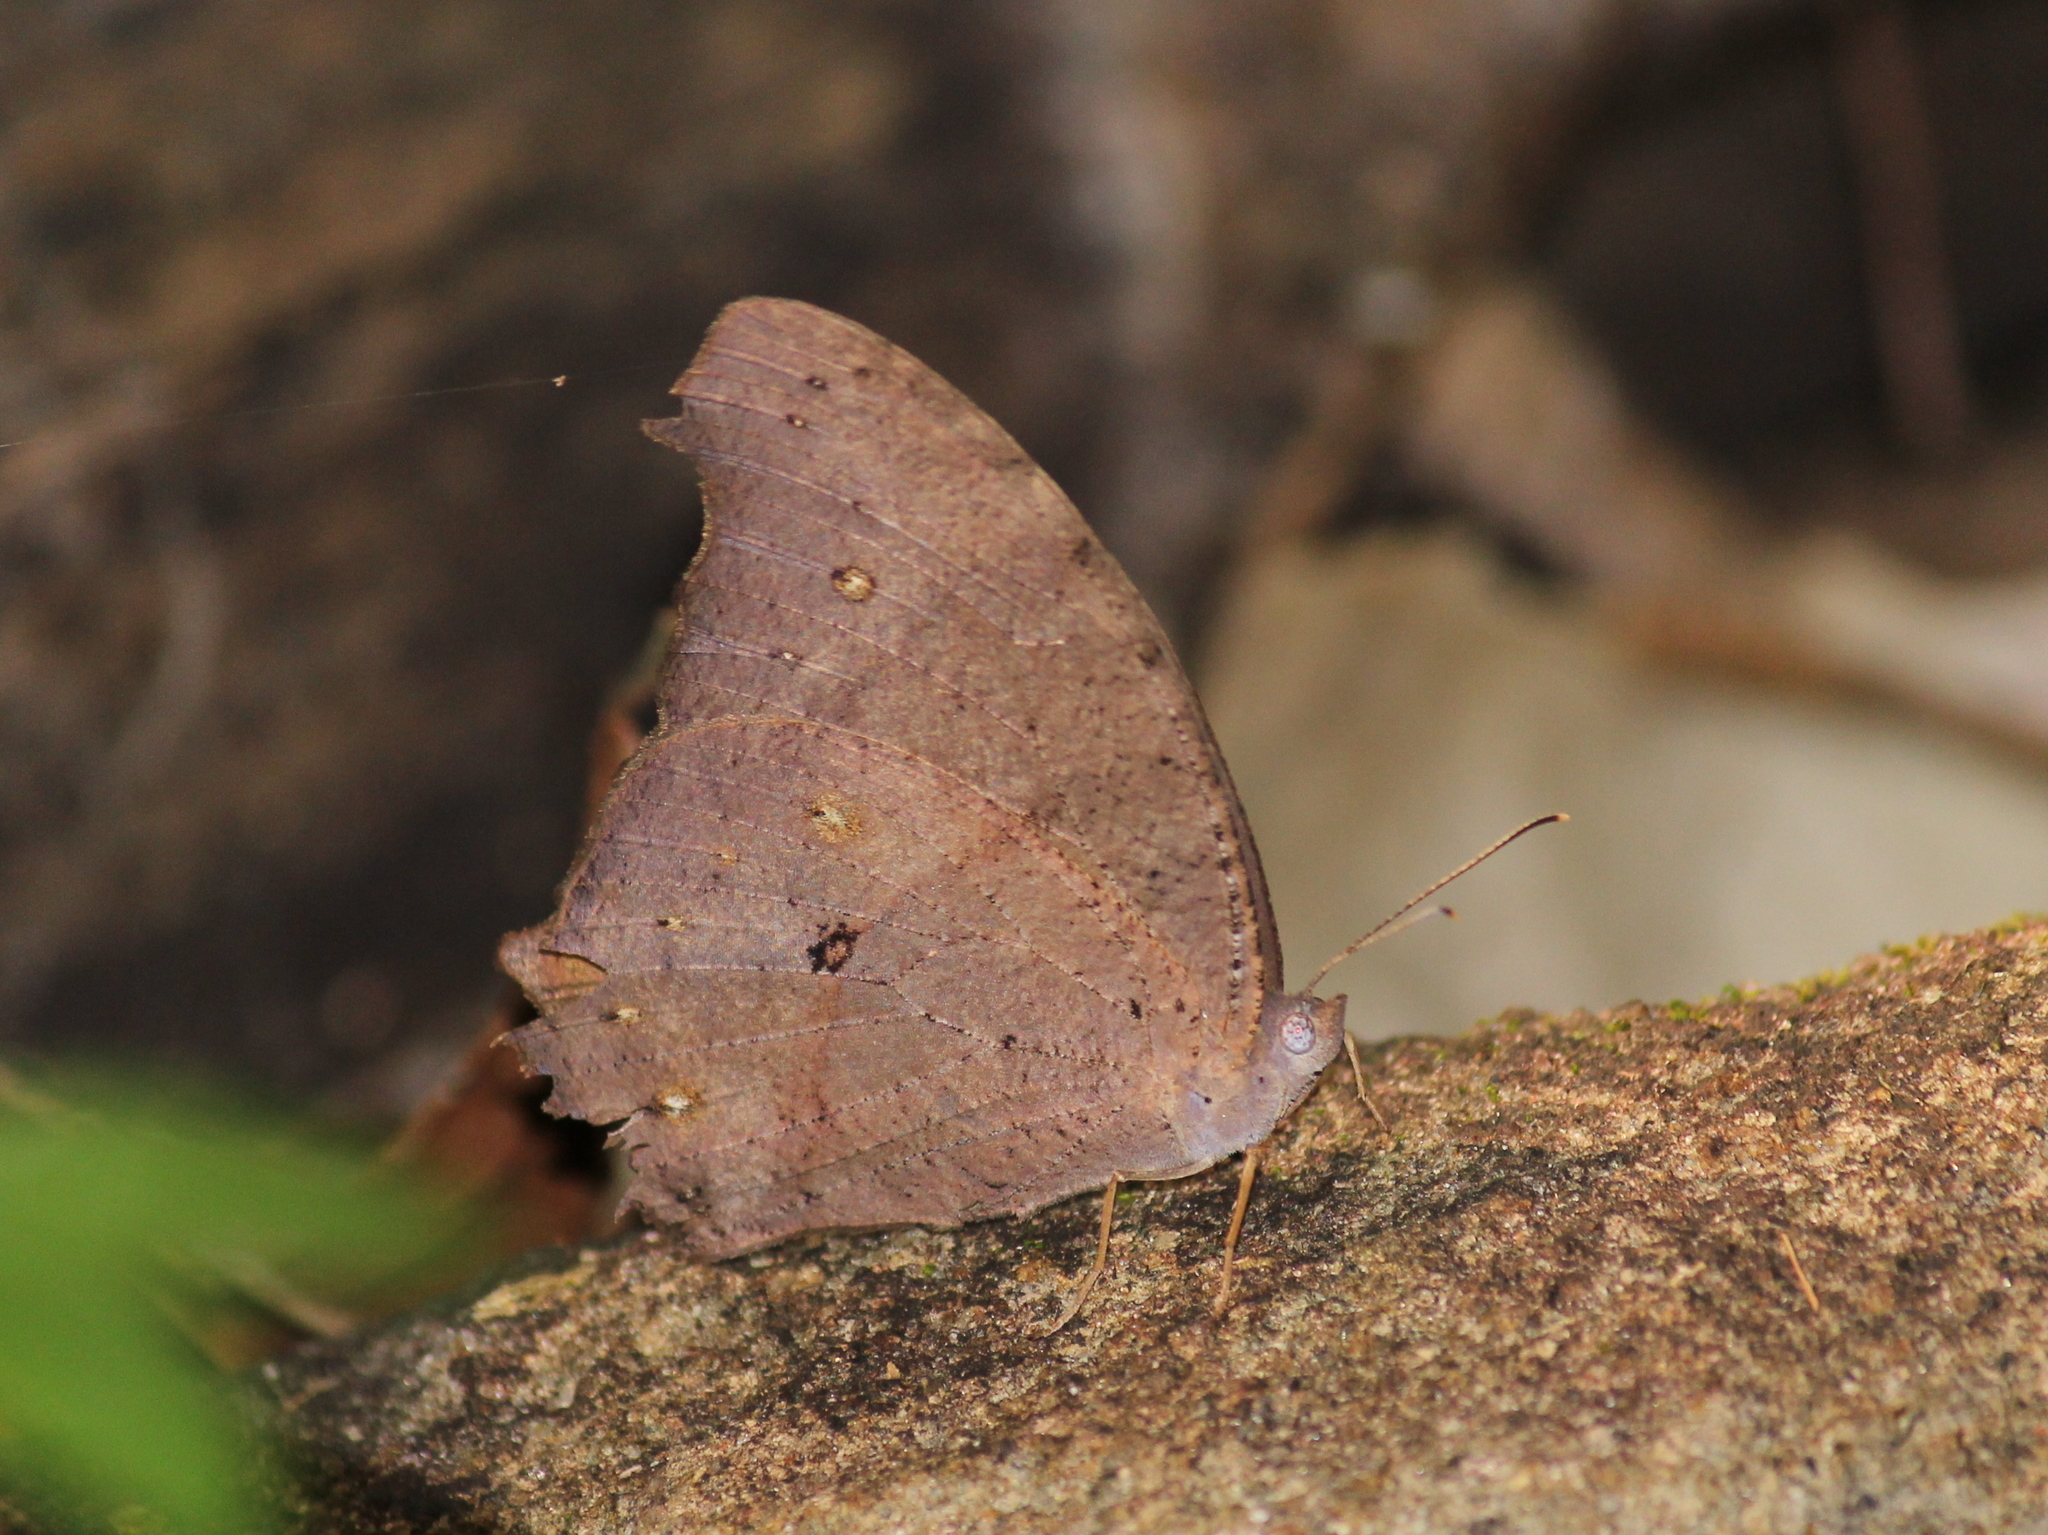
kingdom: Animalia
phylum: Arthropoda
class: Insecta
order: Lepidoptera
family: Nymphalidae
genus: Melanitis
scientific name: Melanitis leda
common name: Twilight brown
